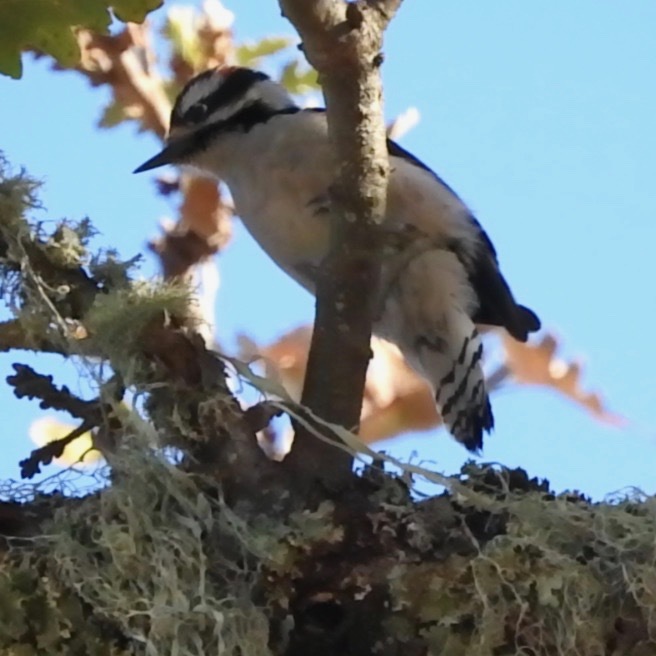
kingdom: Animalia
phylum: Chordata
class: Aves
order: Piciformes
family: Picidae
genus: Dryobates
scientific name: Dryobates pubescens
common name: Downy woodpecker
